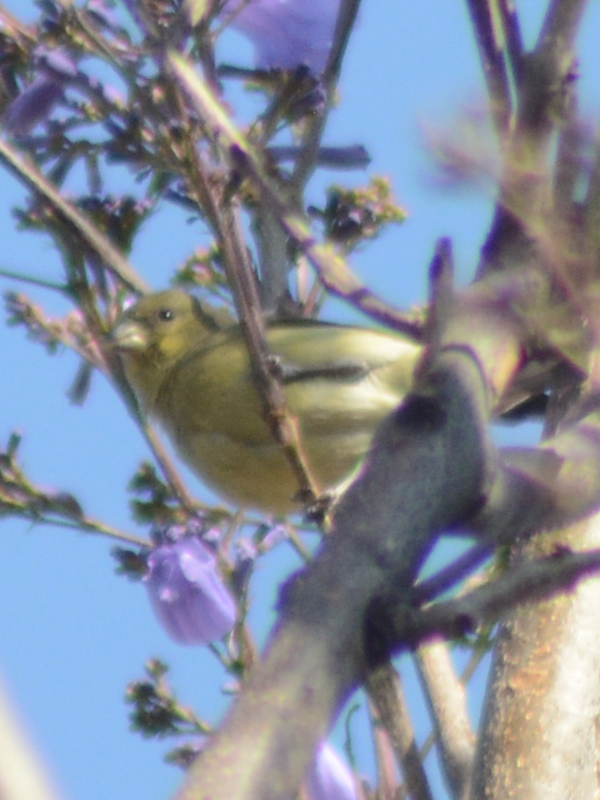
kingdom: Animalia
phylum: Chordata
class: Aves
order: Passeriformes
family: Fringillidae
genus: Spinus
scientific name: Spinus psaltria
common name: Lesser goldfinch
